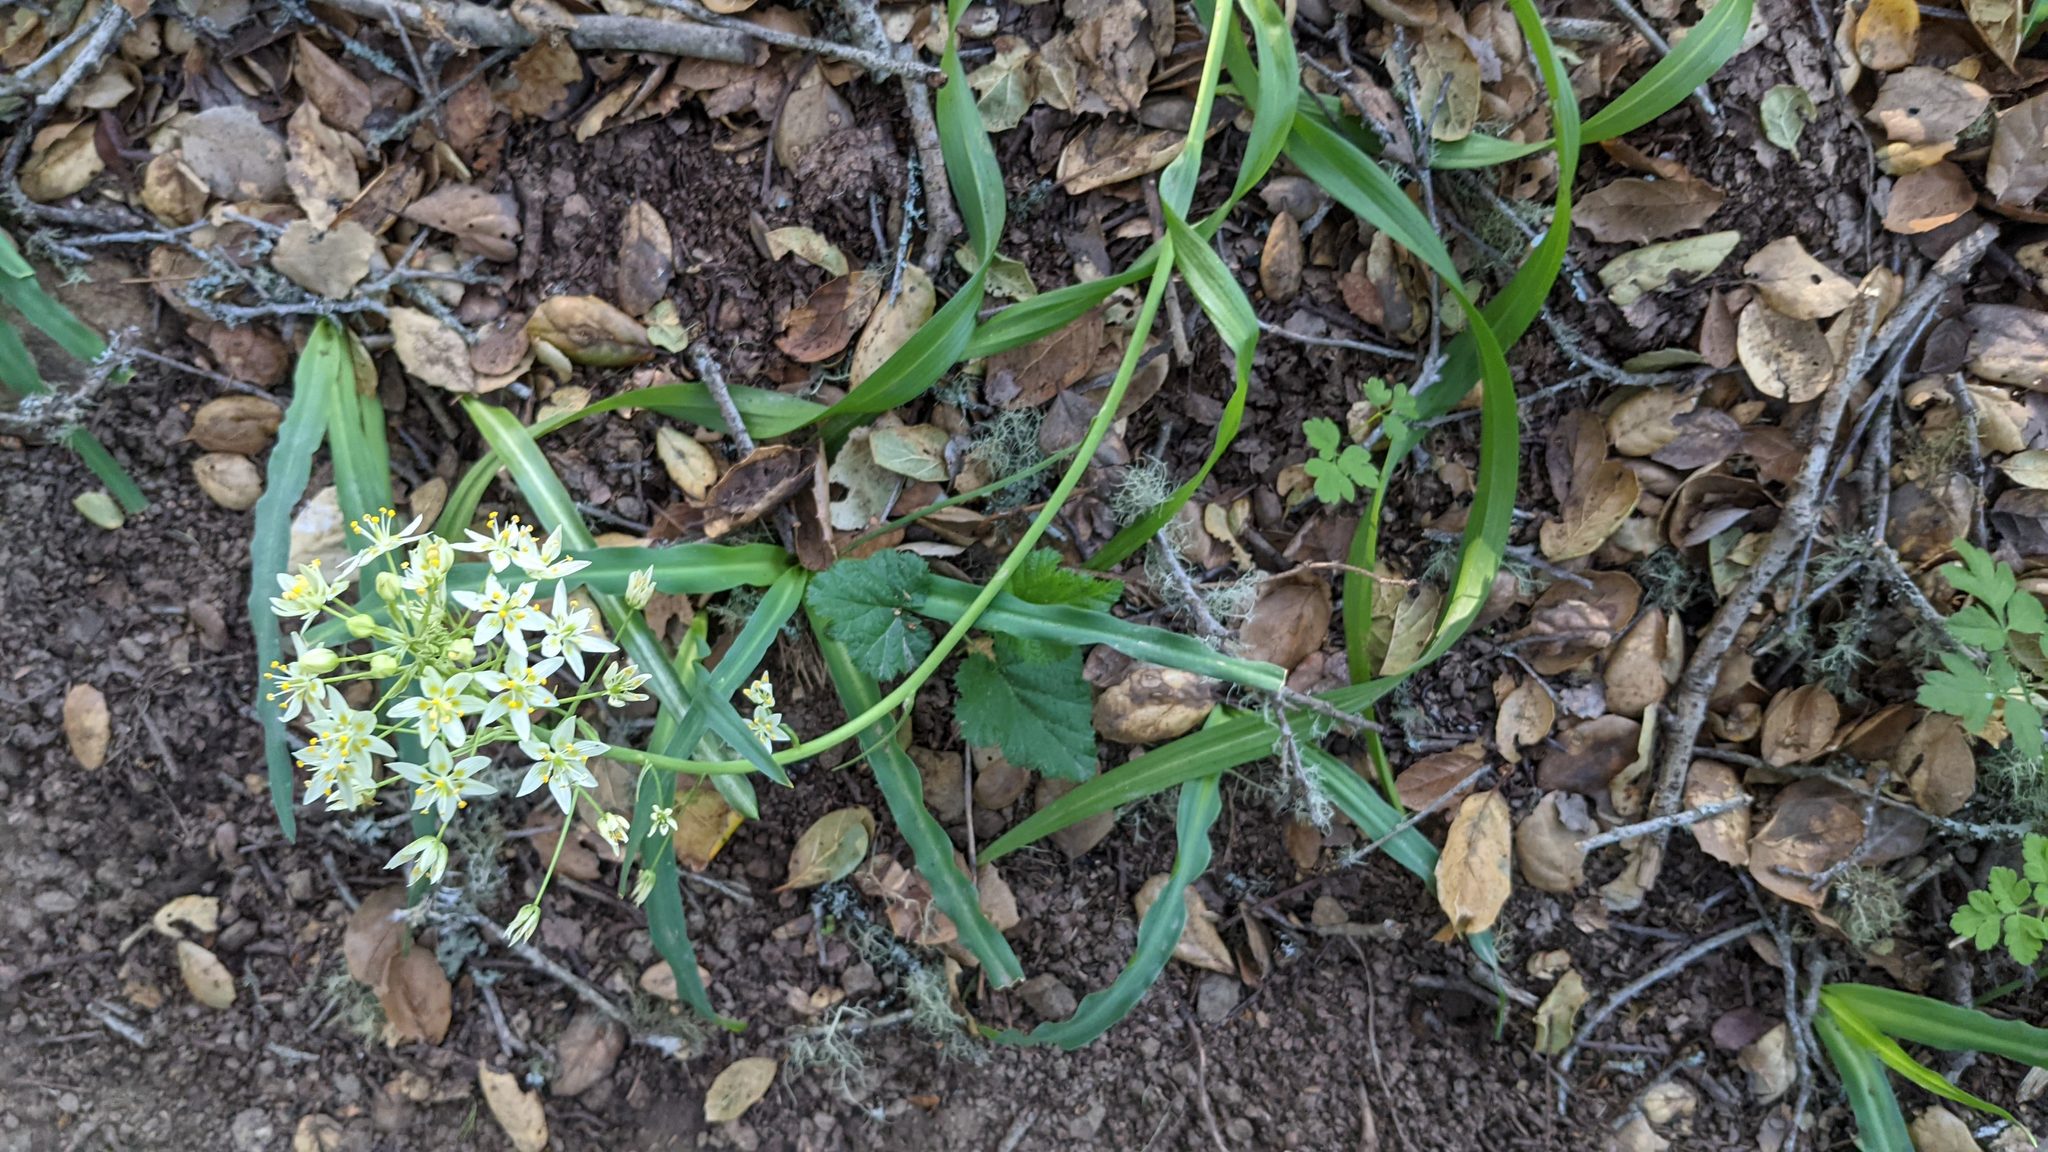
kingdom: Plantae
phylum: Tracheophyta
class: Liliopsida
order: Liliales
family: Melanthiaceae
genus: Toxicoscordion
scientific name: Toxicoscordion fremontii
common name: Fremont's death camas
